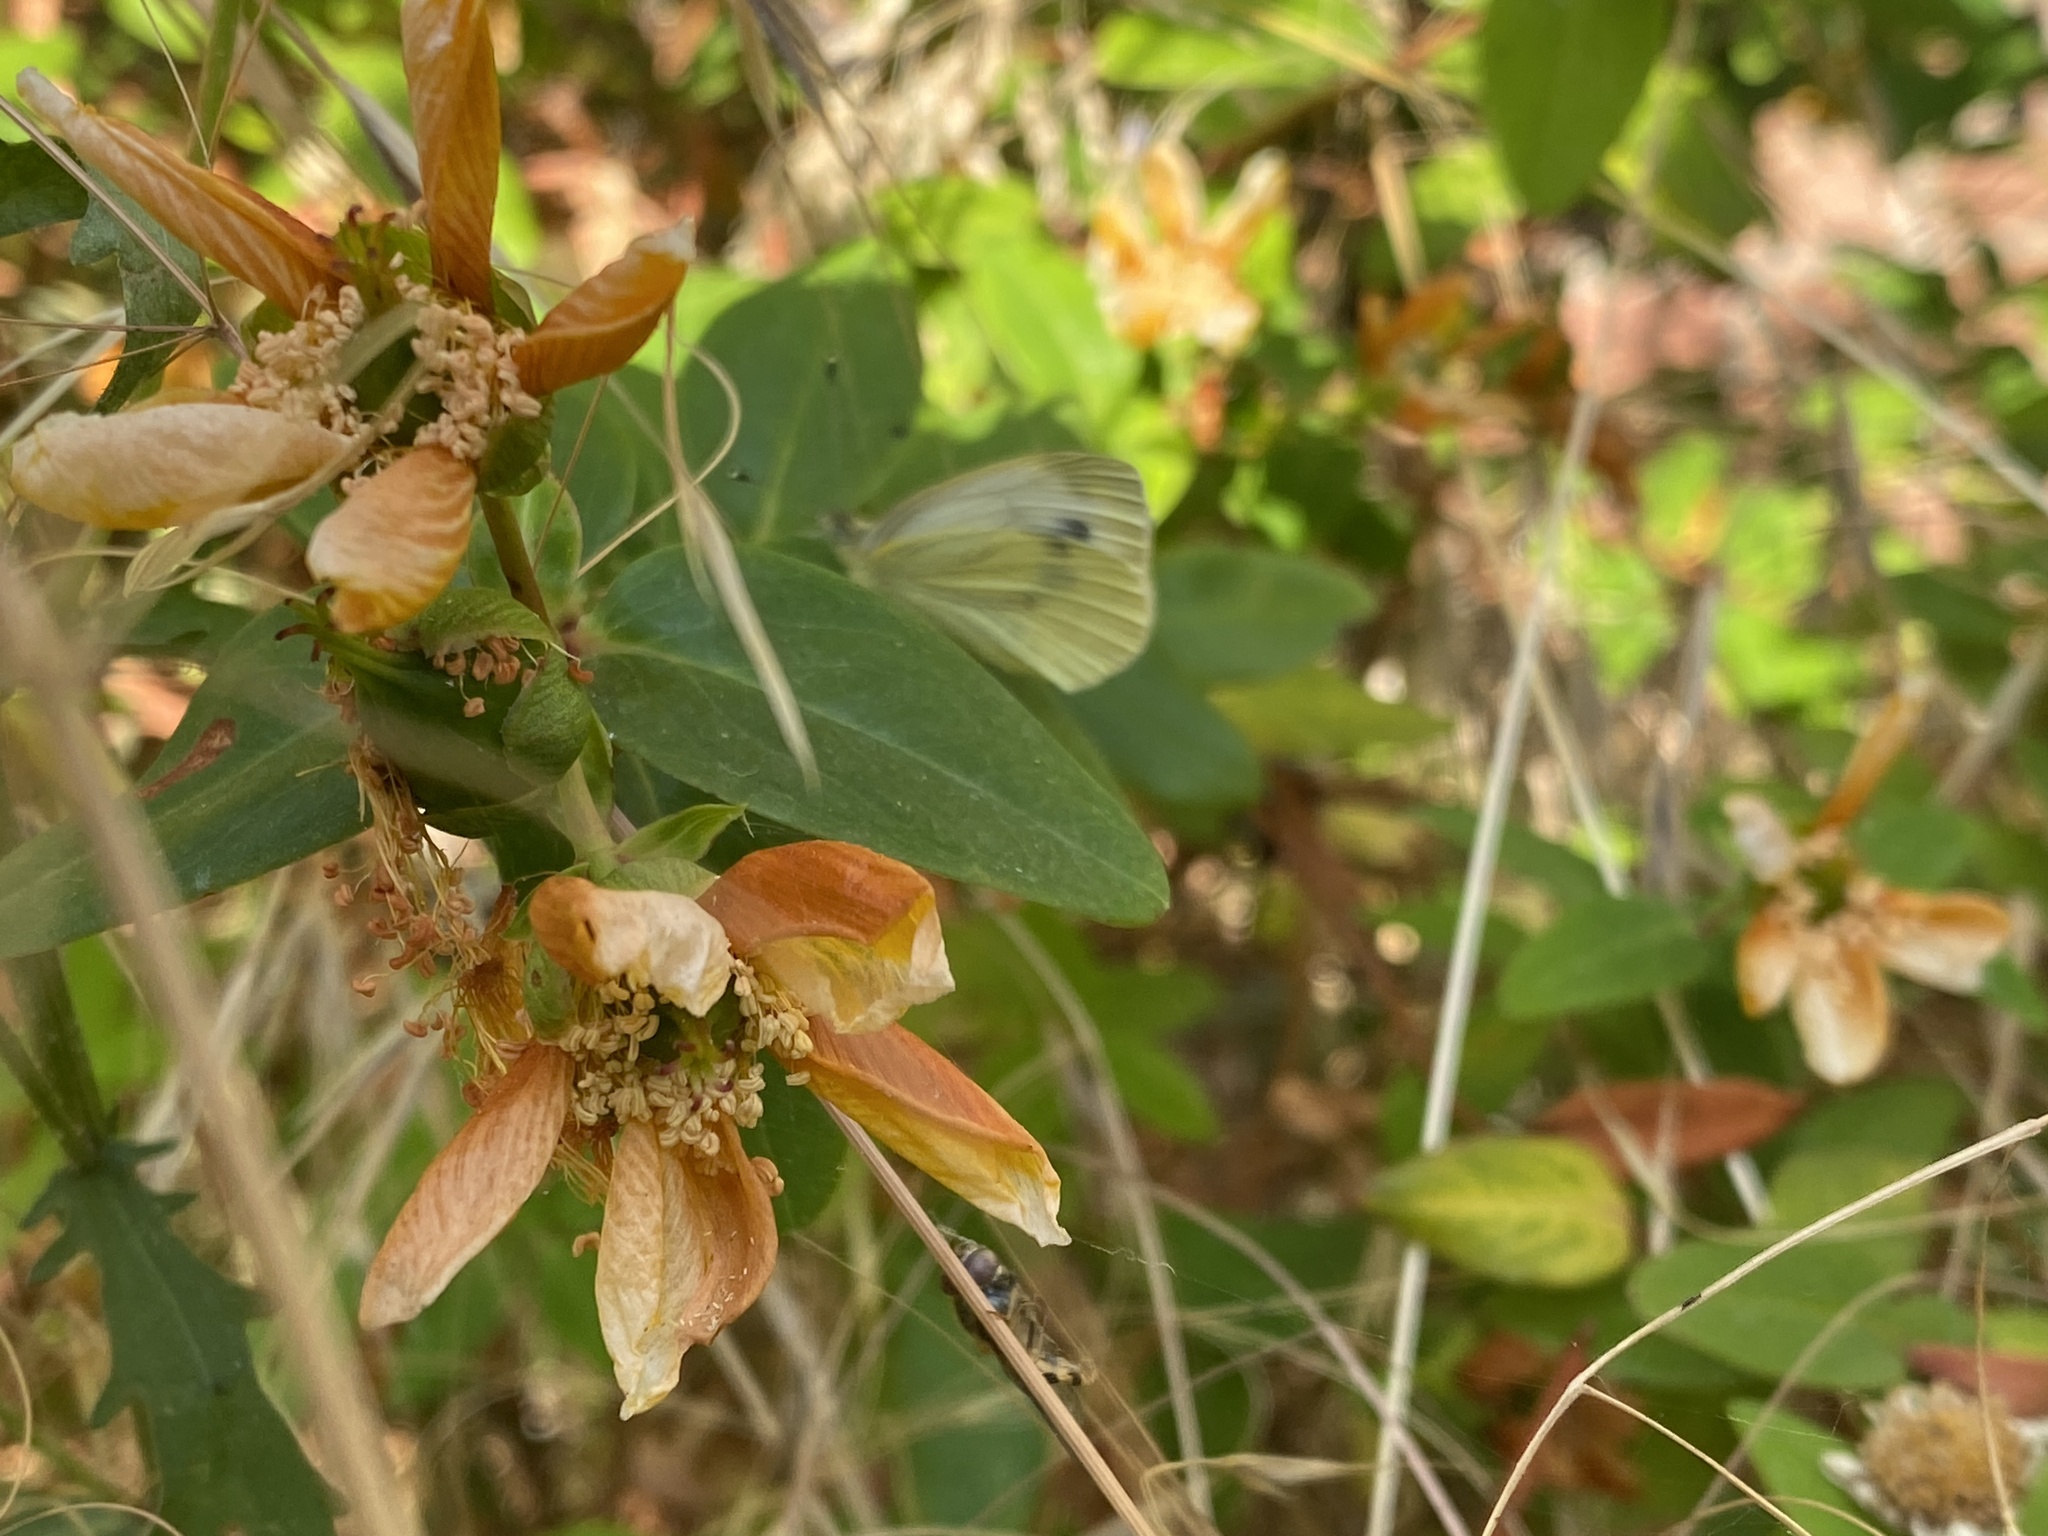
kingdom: Animalia
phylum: Arthropoda
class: Insecta
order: Lepidoptera
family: Pieridae
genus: Pieris
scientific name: Pieris napi
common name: Green-veined white
